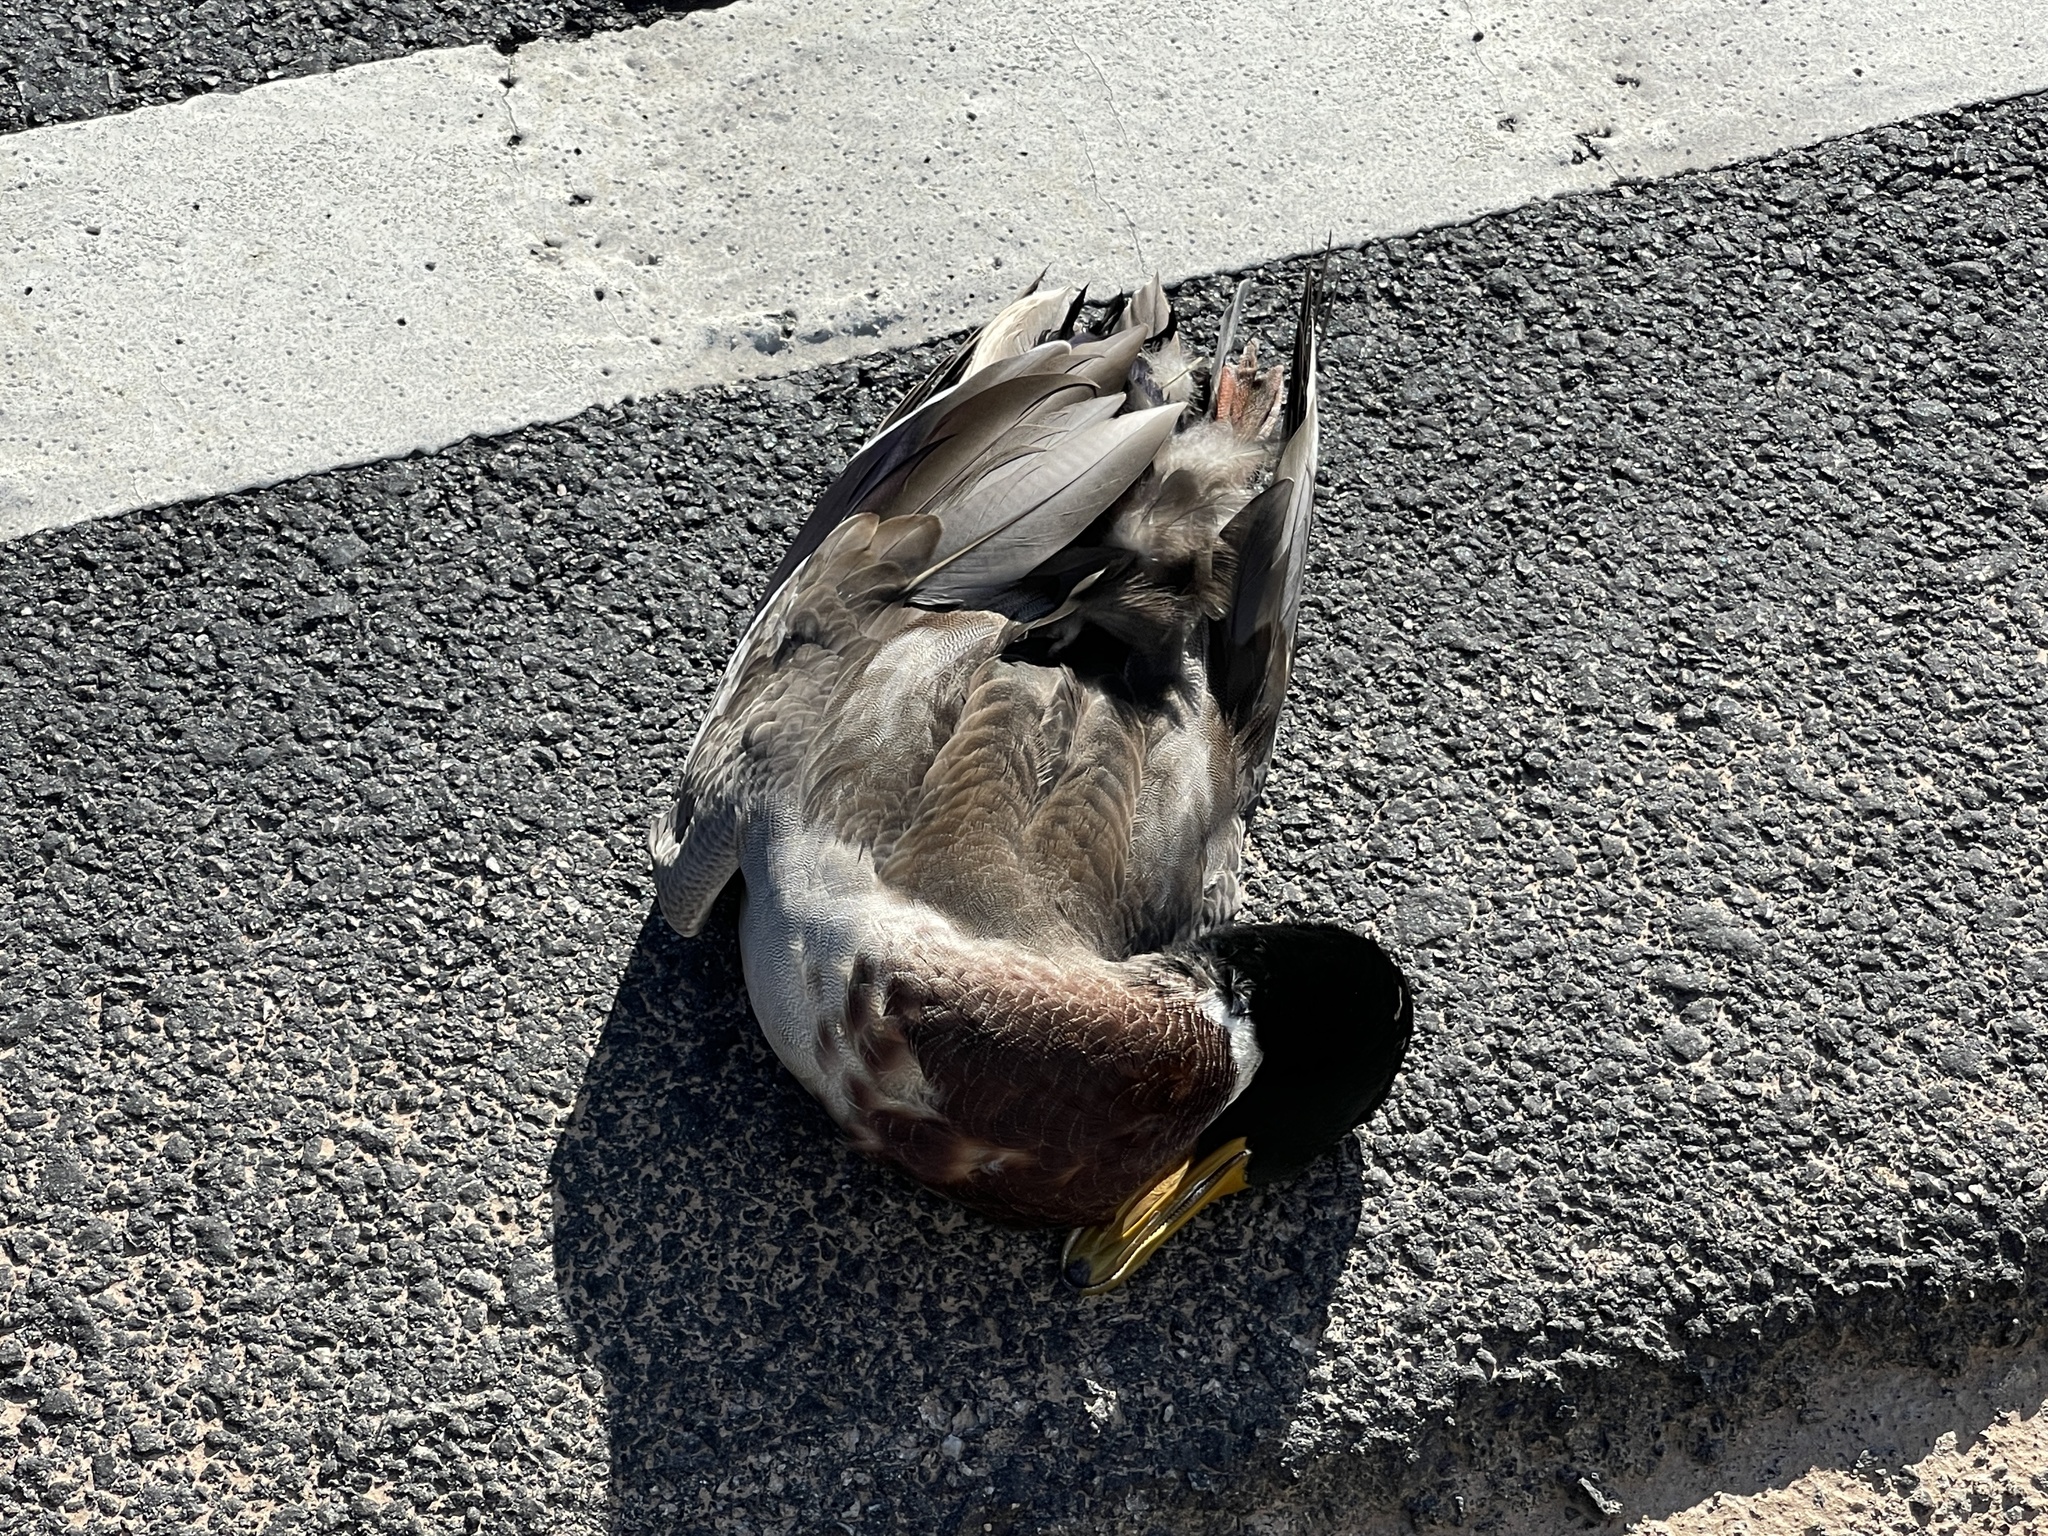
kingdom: Animalia
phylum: Chordata
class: Aves
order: Anseriformes
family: Anatidae
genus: Anas
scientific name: Anas platyrhynchos
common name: Mallard
